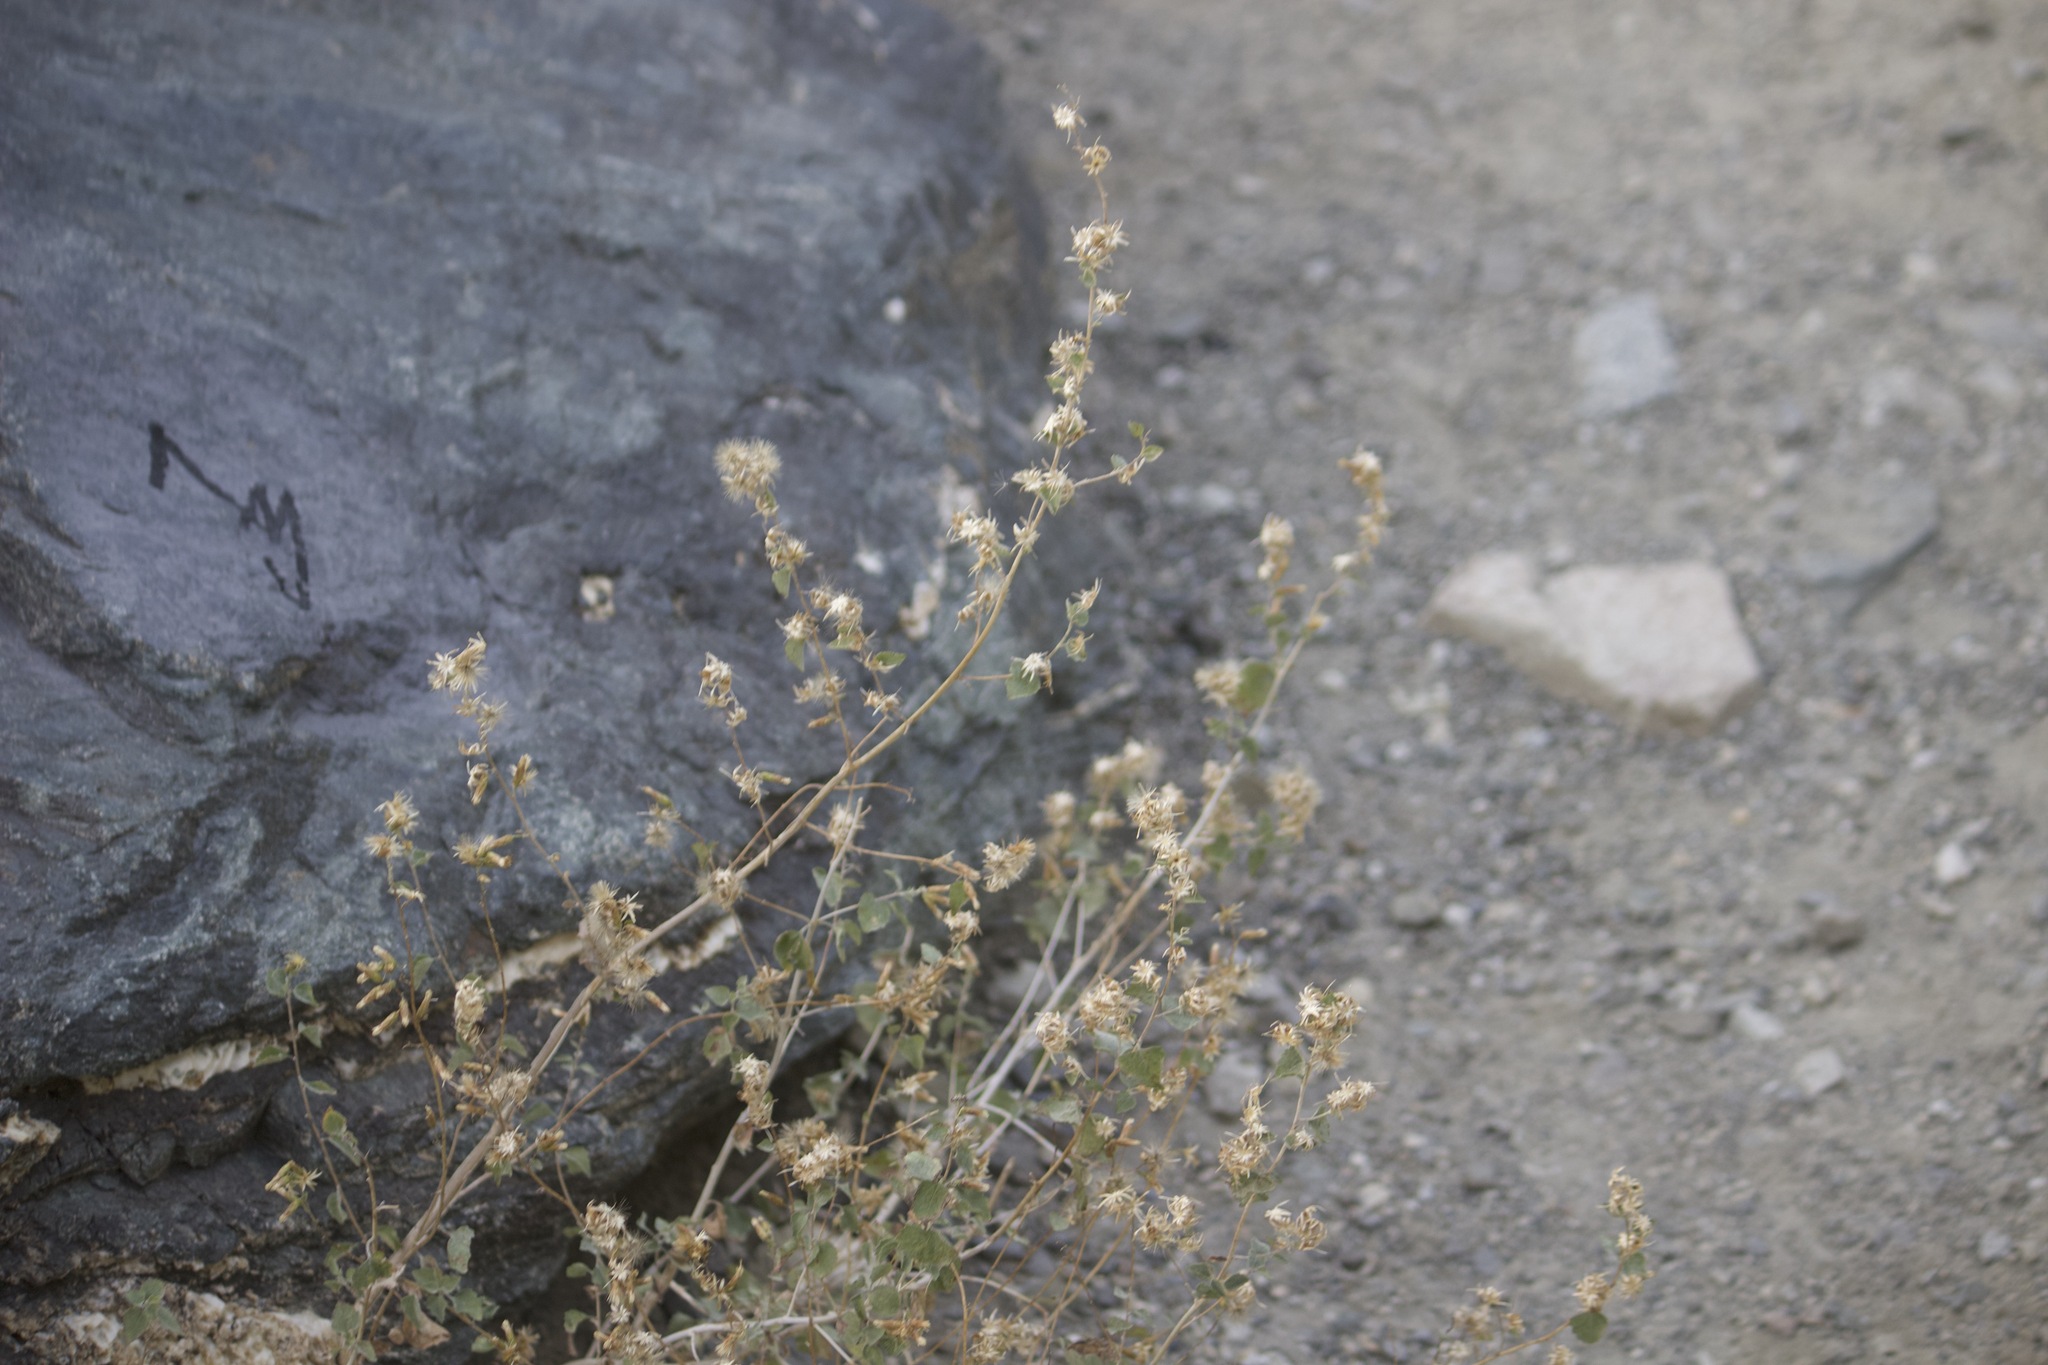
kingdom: Plantae
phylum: Tracheophyta
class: Magnoliopsida
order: Asterales
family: Asteraceae
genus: Brickellia
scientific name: Brickellia californica
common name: California brickellbush
